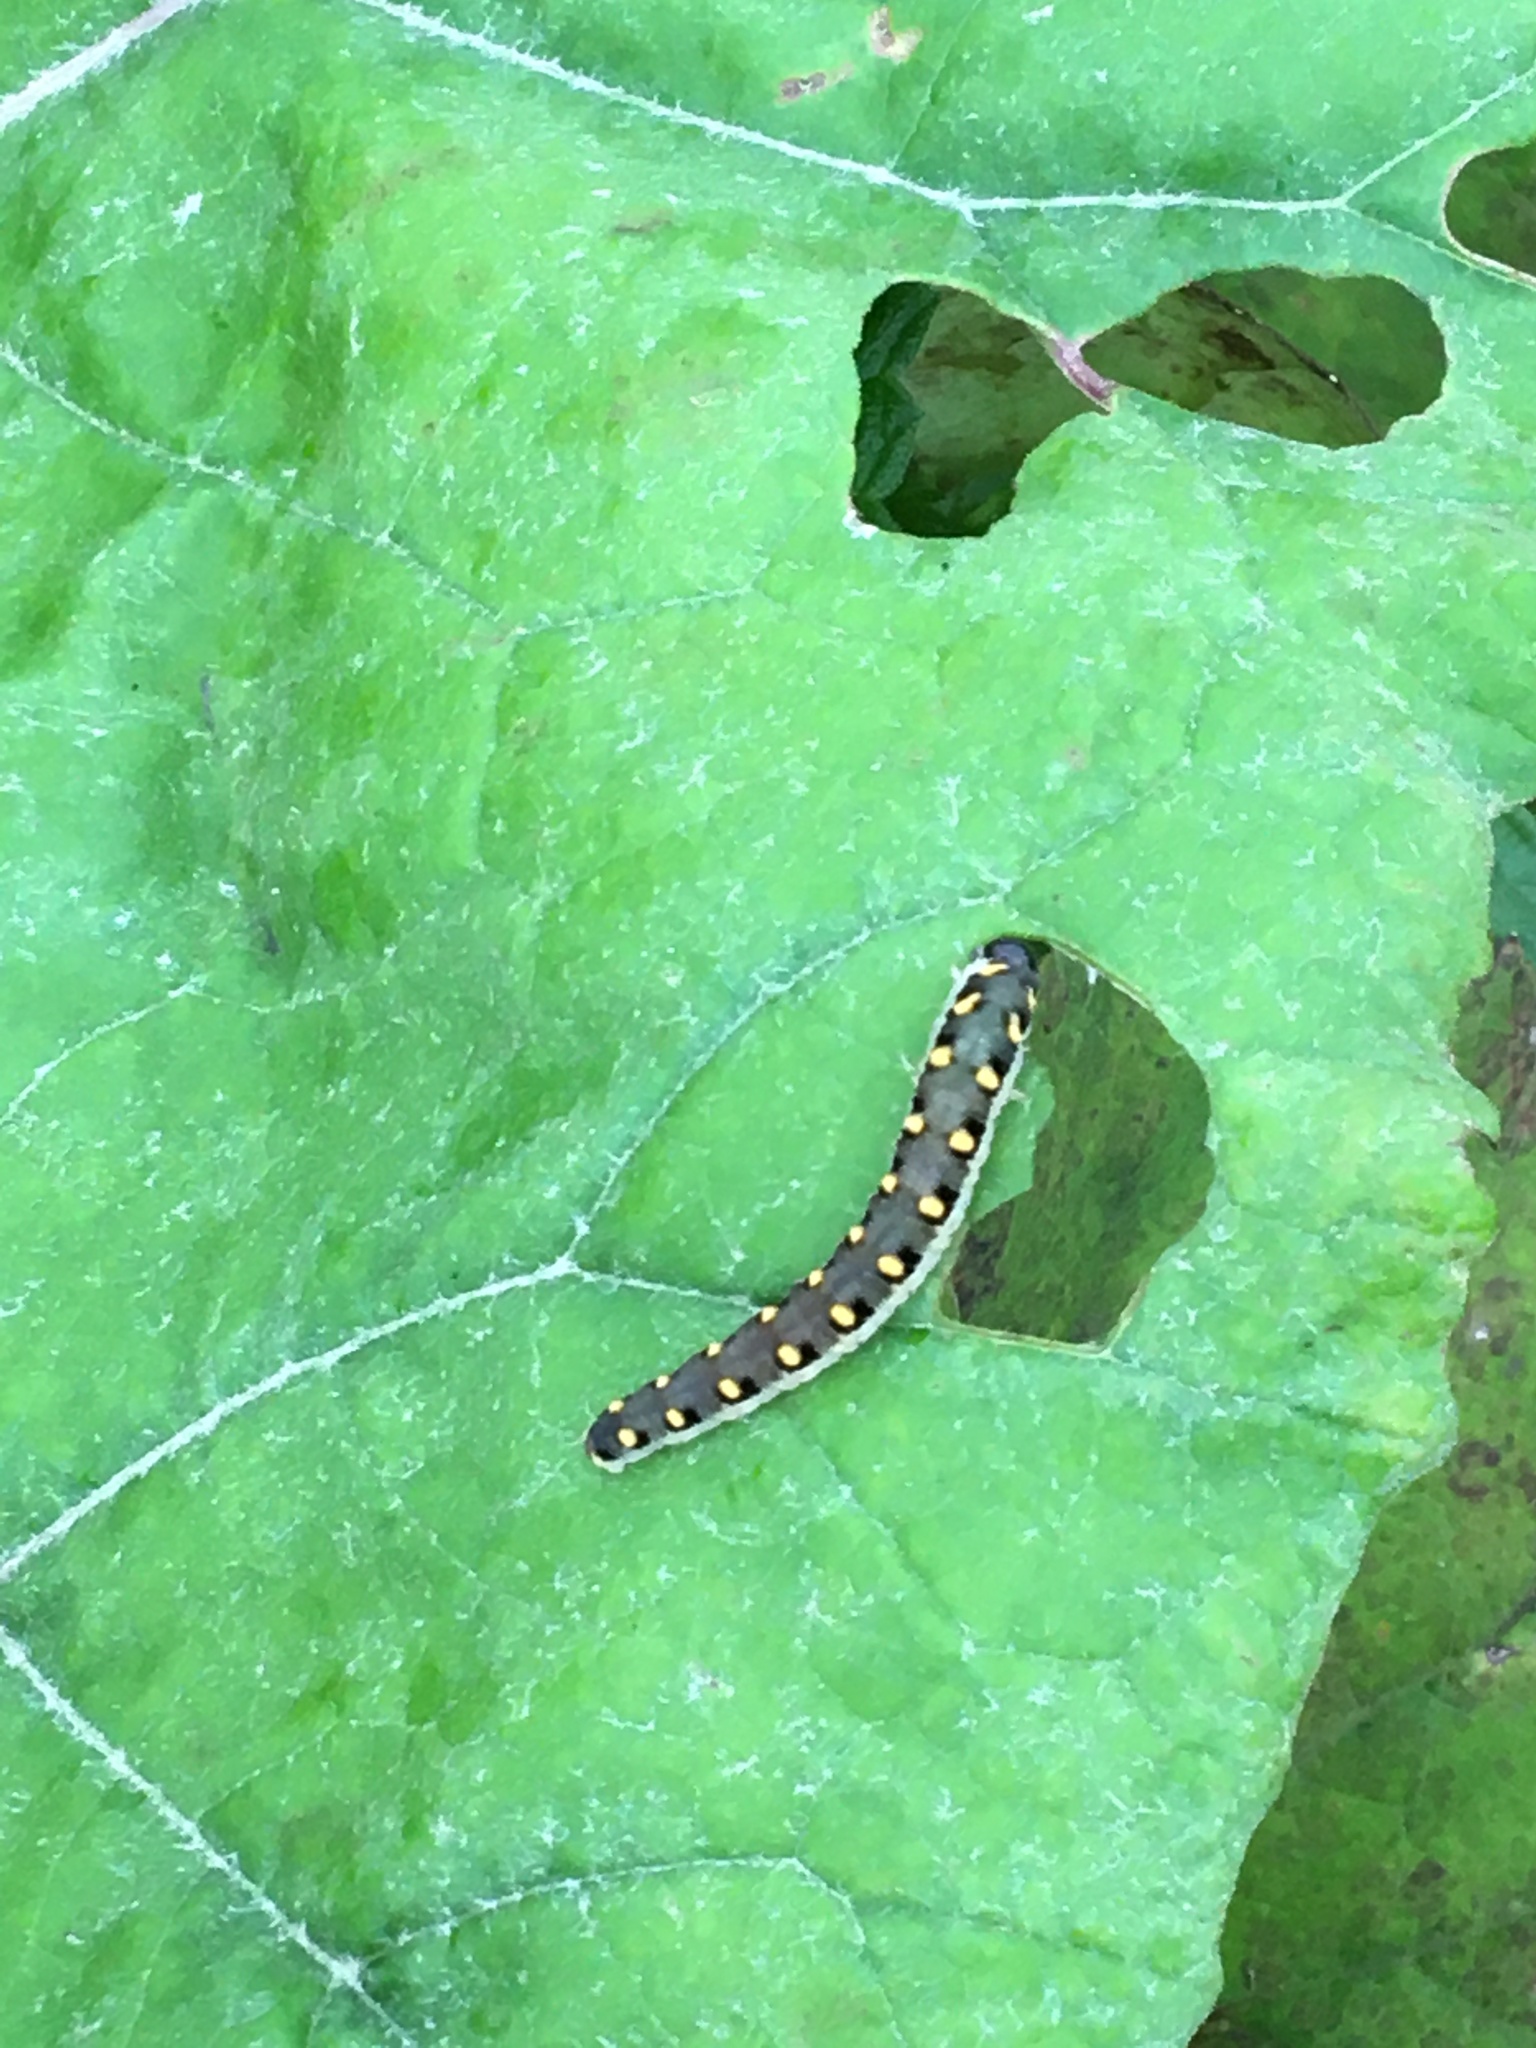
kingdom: Animalia
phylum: Arthropoda
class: Insecta
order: Hymenoptera
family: Tenthredinidae
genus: Tenthredo
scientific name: Tenthredo mandibularis
